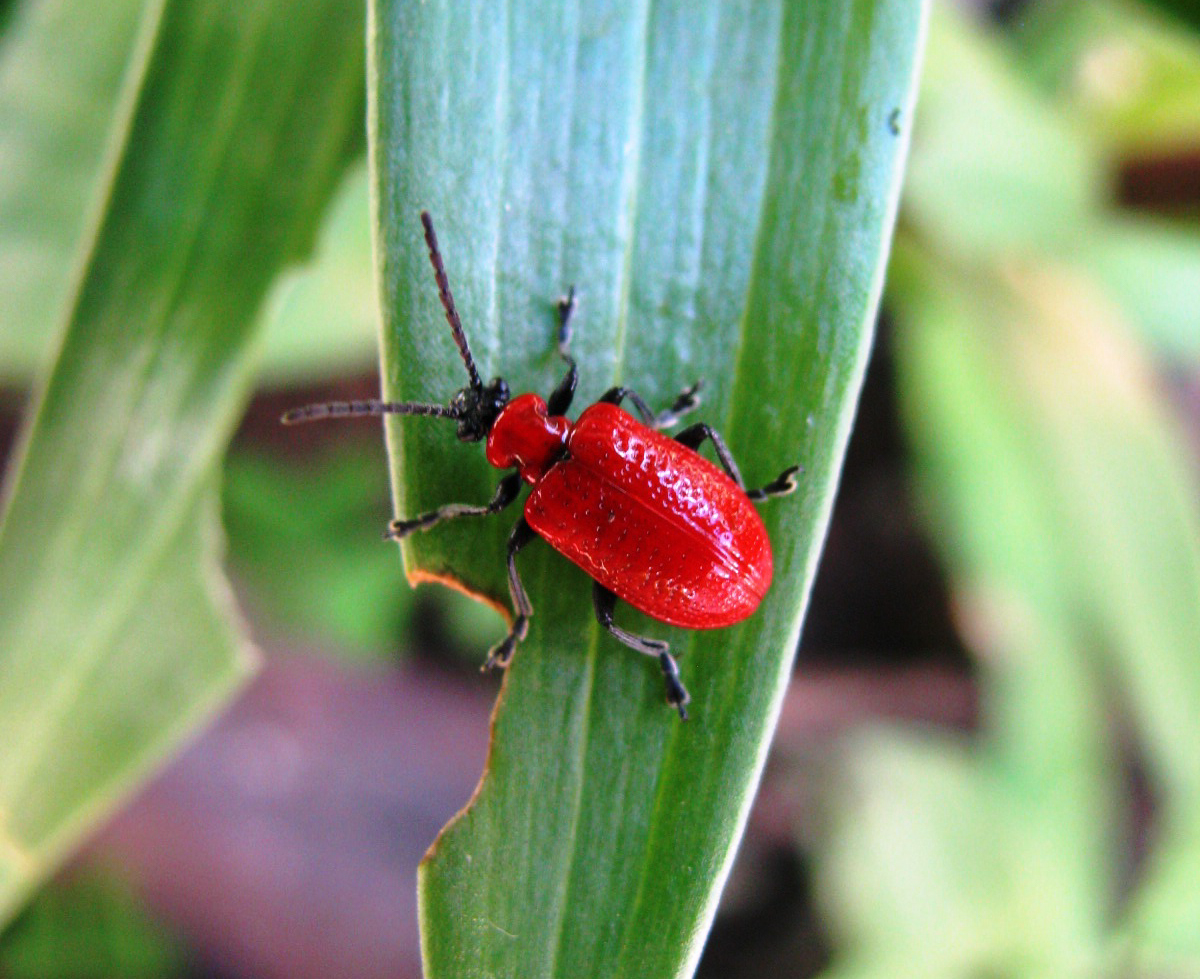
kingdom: Animalia
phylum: Arthropoda
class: Insecta
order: Coleoptera
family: Chrysomelidae
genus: Lilioceris
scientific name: Lilioceris lilii
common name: Lily beetle
